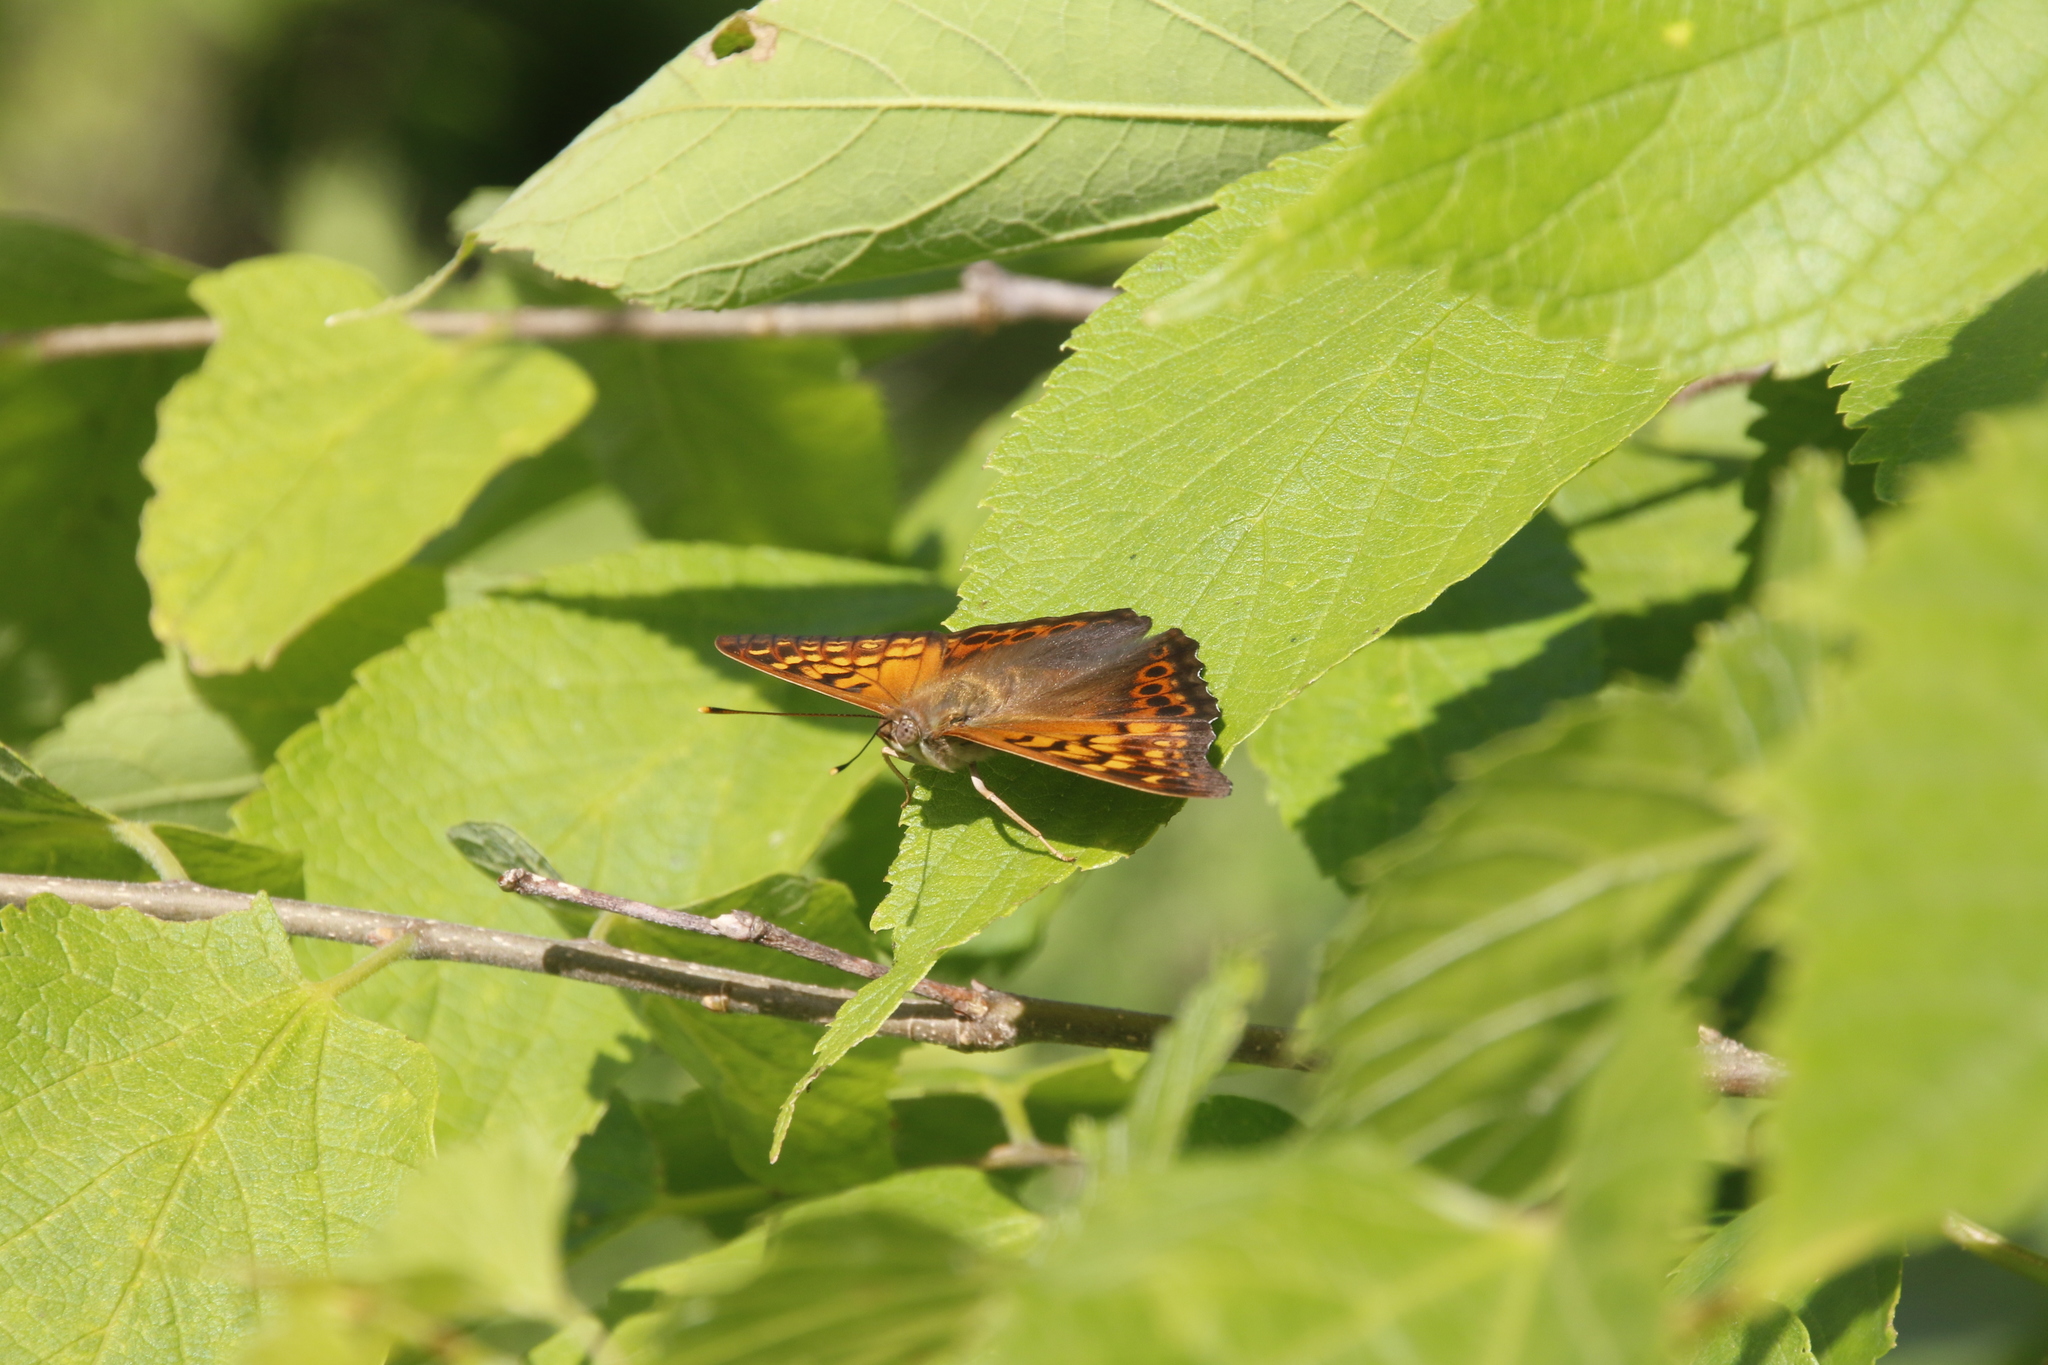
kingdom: Animalia
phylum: Arthropoda
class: Insecta
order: Lepidoptera
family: Nymphalidae
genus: Asterocampa
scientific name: Asterocampa clyton
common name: Tawny emperor
